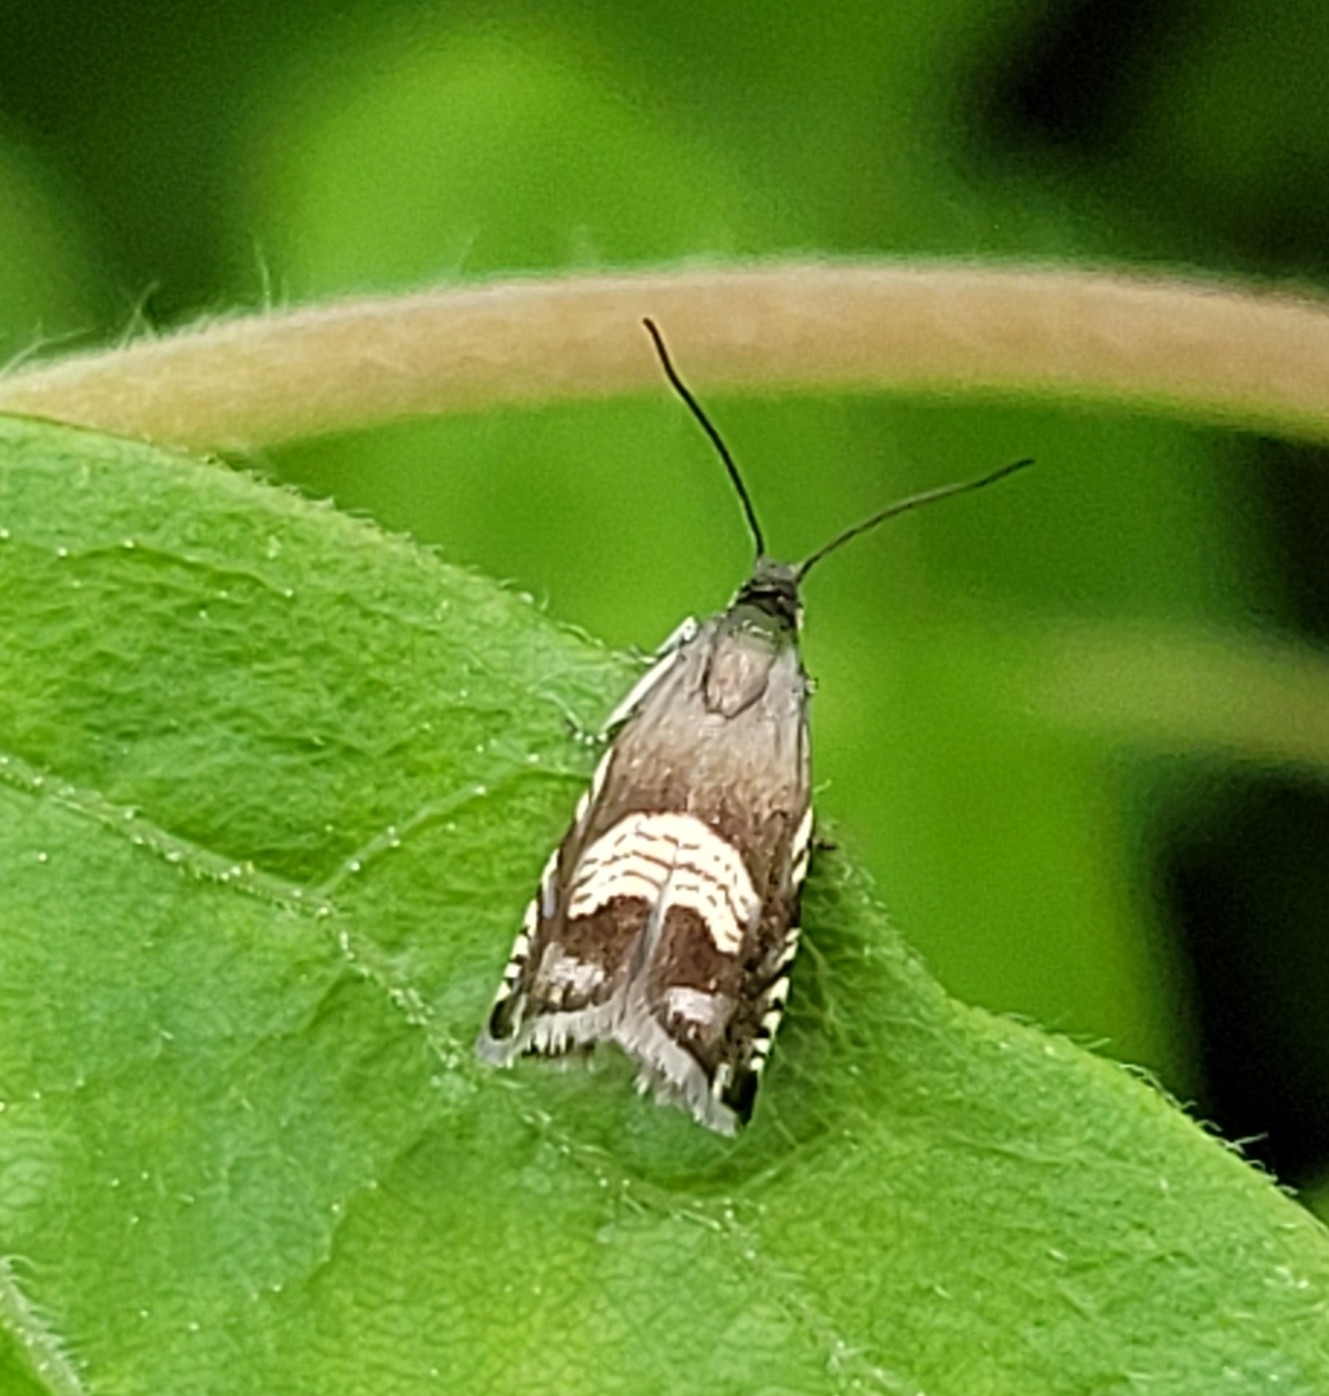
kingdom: Animalia
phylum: Arthropoda
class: Insecta
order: Lepidoptera
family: Tortricidae
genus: Grapholita
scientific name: Grapholita compositella
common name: Triple-stripe piercer
